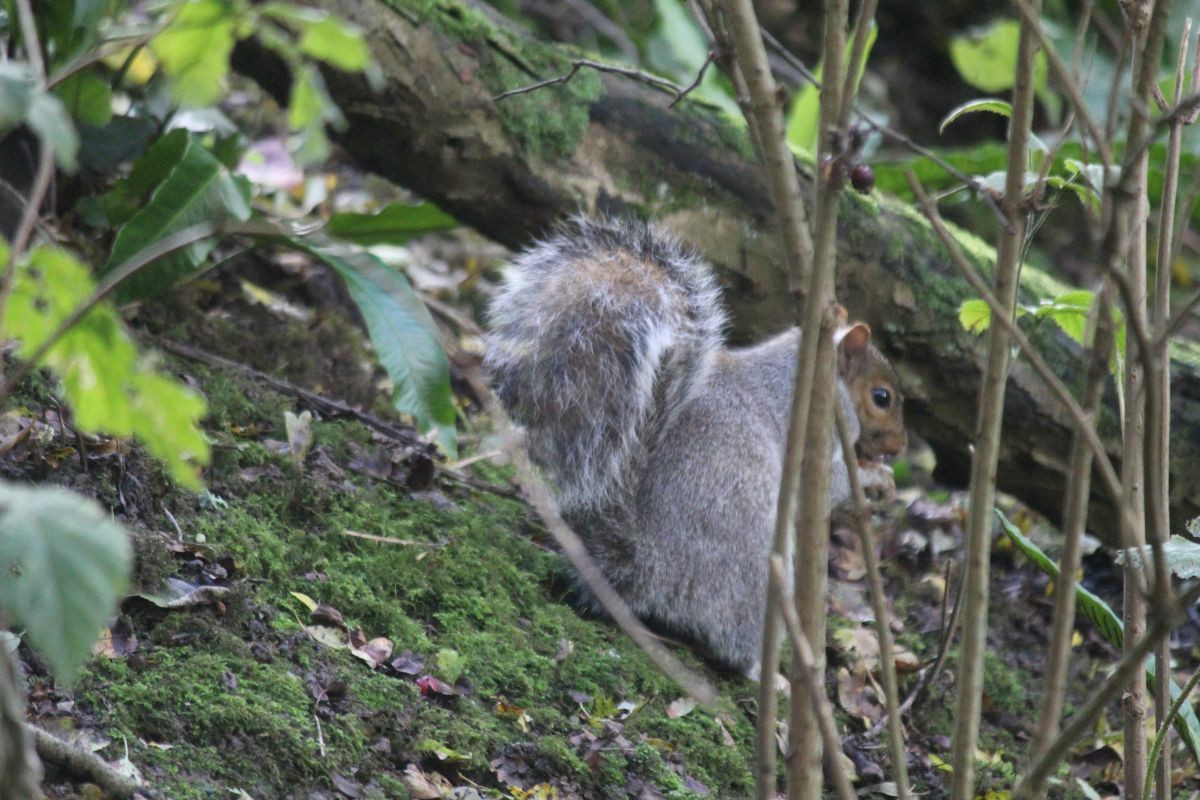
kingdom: Animalia
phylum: Chordata
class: Mammalia
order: Rodentia
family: Sciuridae
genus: Sciurus
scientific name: Sciurus carolinensis
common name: Eastern gray squirrel
